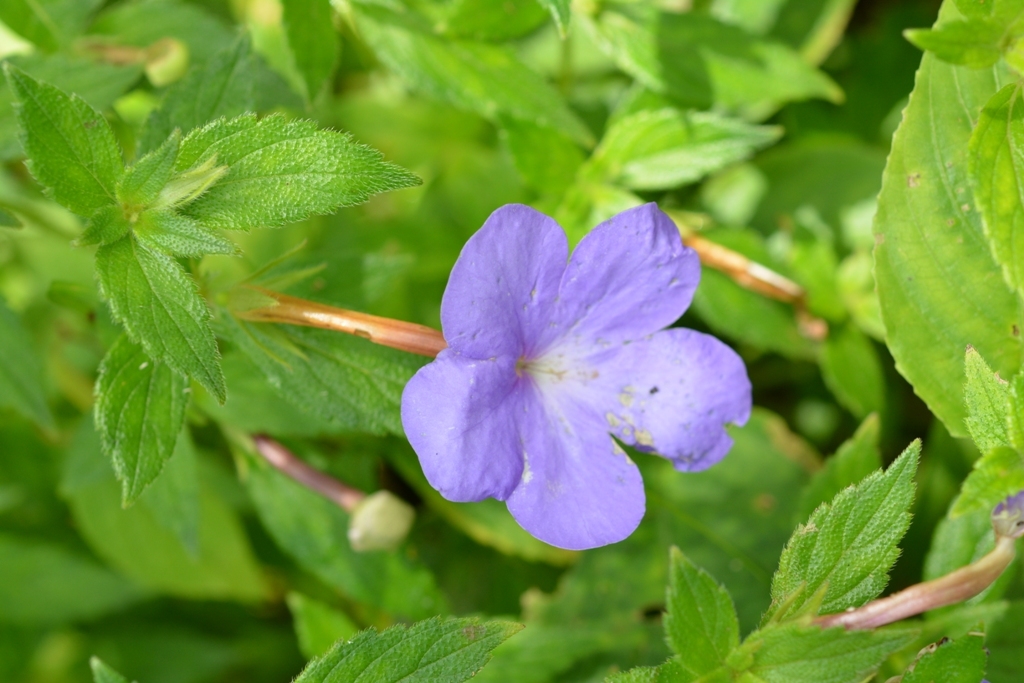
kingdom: Plantae
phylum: Tracheophyta
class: Magnoliopsida
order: Lamiales
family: Gesneriaceae
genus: Achimenes
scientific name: Achimenes longiflora
